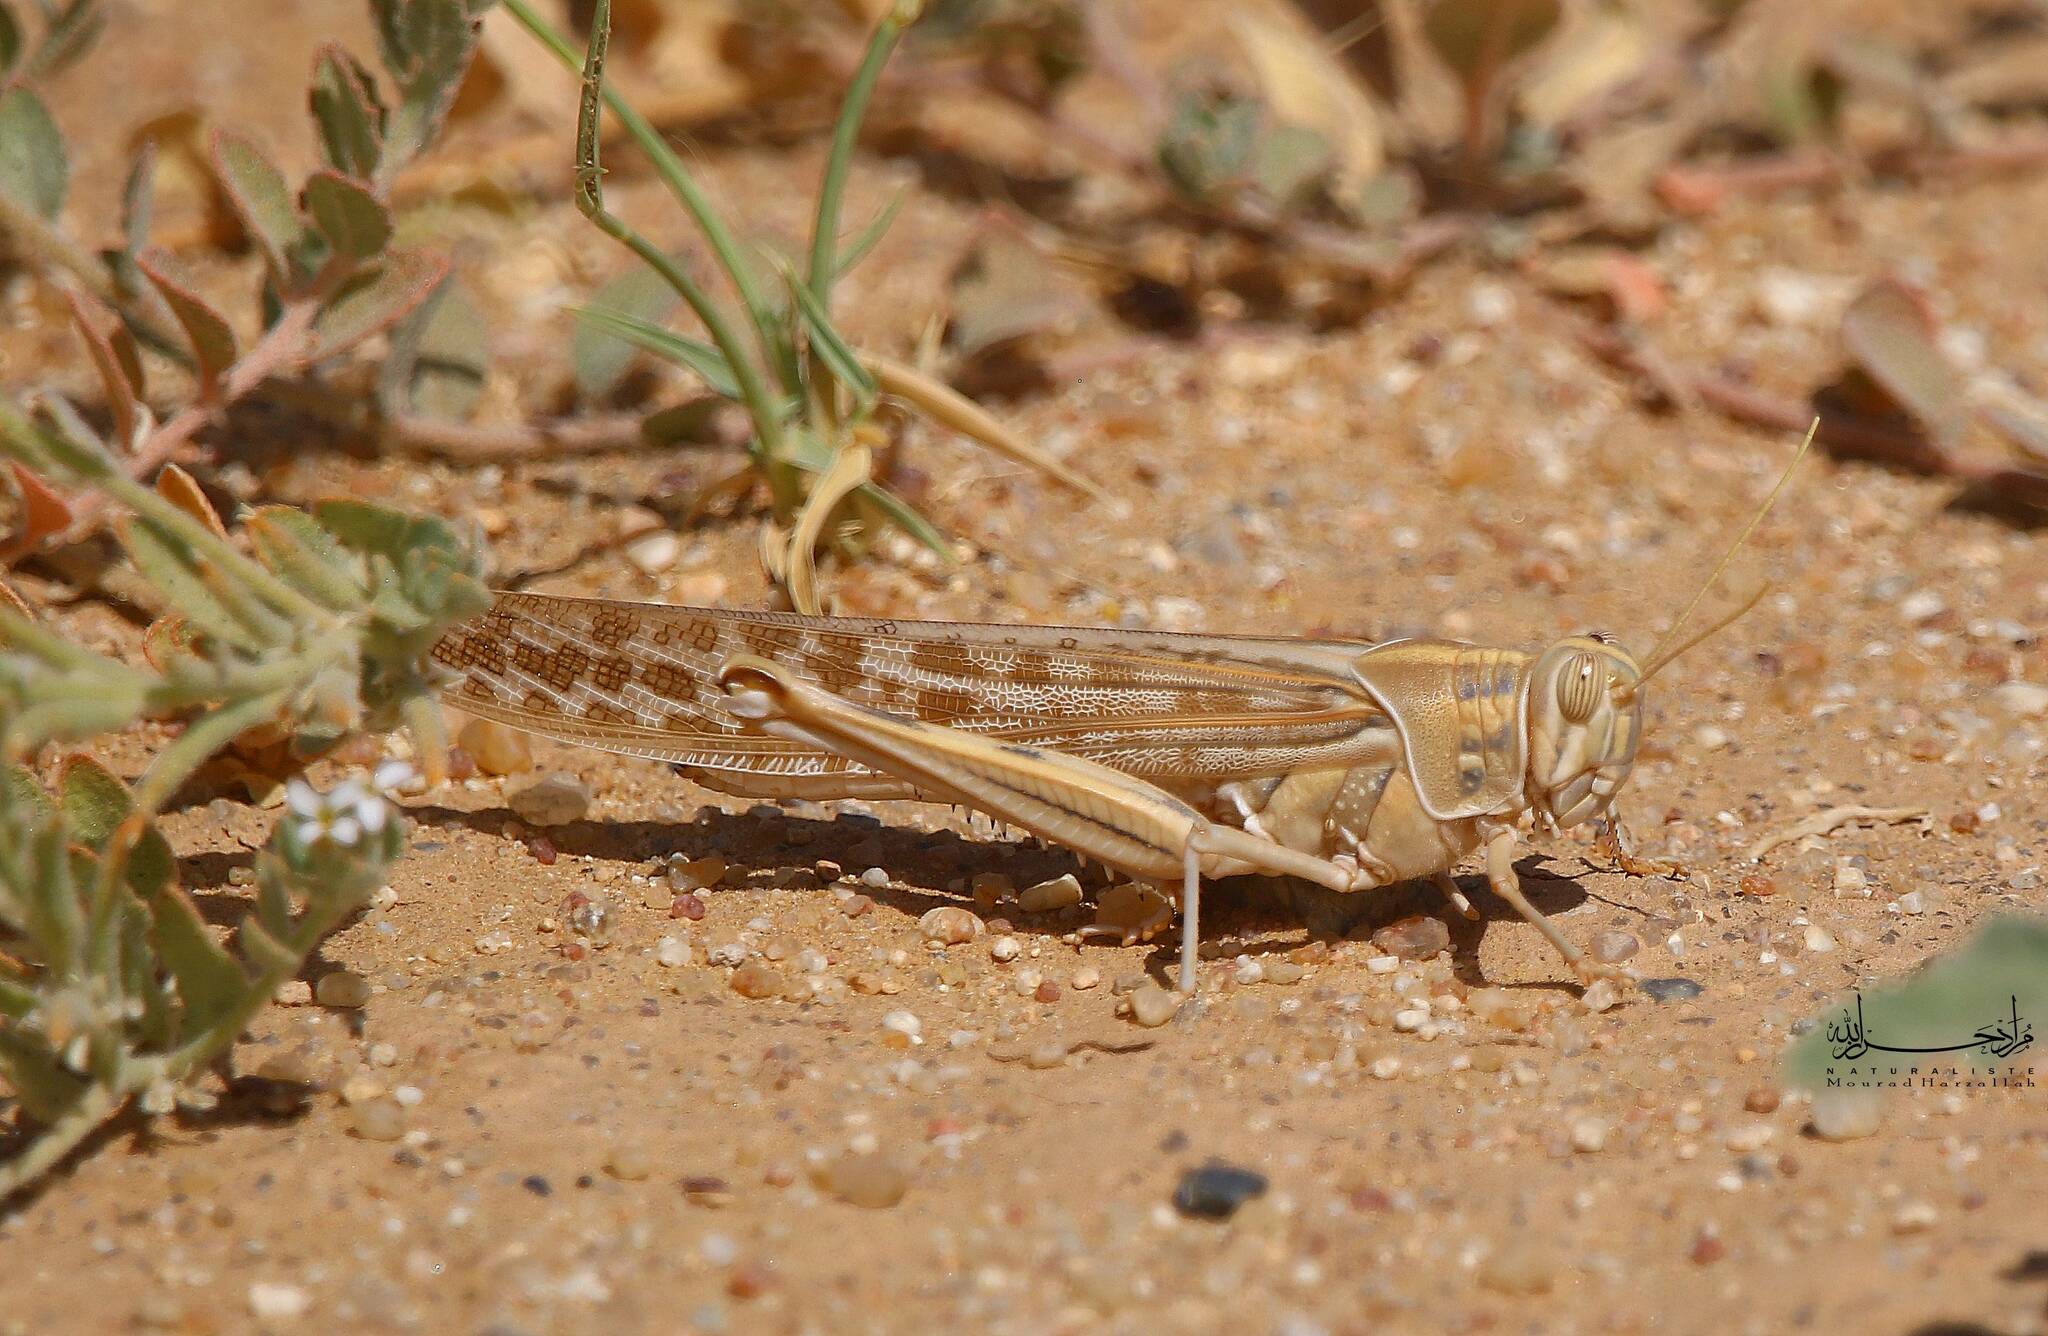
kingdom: Animalia
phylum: Arthropoda
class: Insecta
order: Orthoptera
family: Acrididae
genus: Schistocerca
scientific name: Schistocerca gregaria
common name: Desert locust
